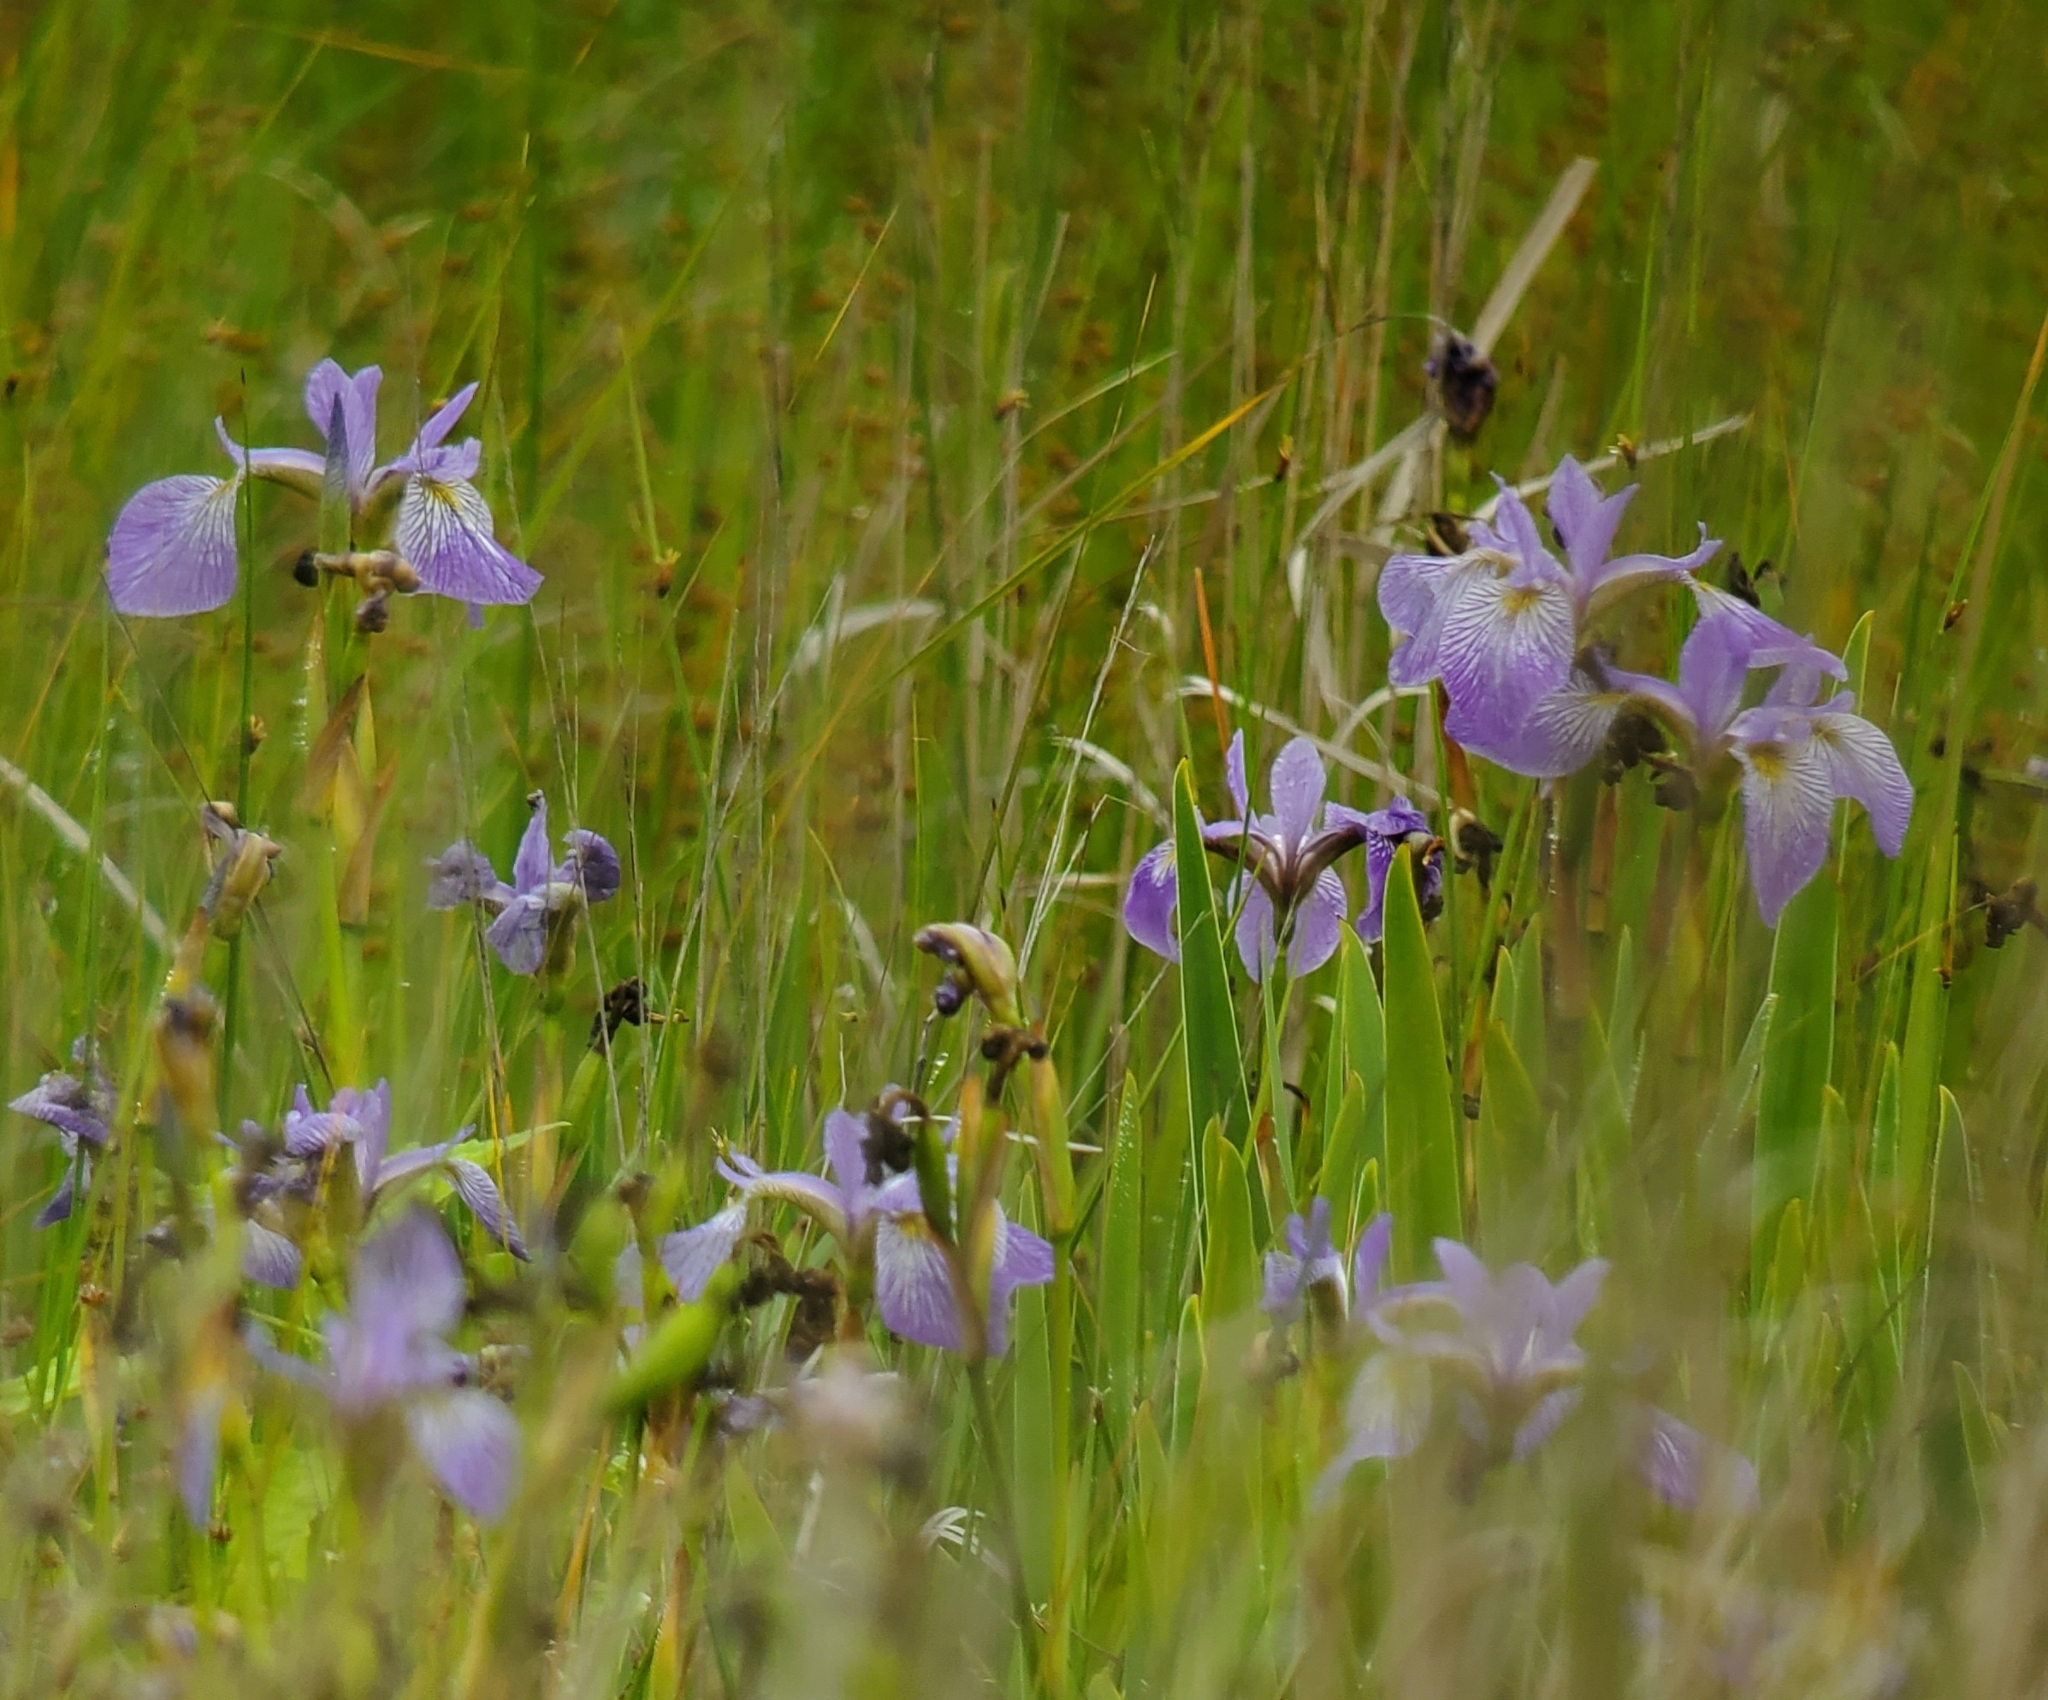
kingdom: Plantae
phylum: Tracheophyta
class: Liliopsida
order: Asparagales
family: Iridaceae
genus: Iris
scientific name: Iris versicolor
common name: Purple iris
